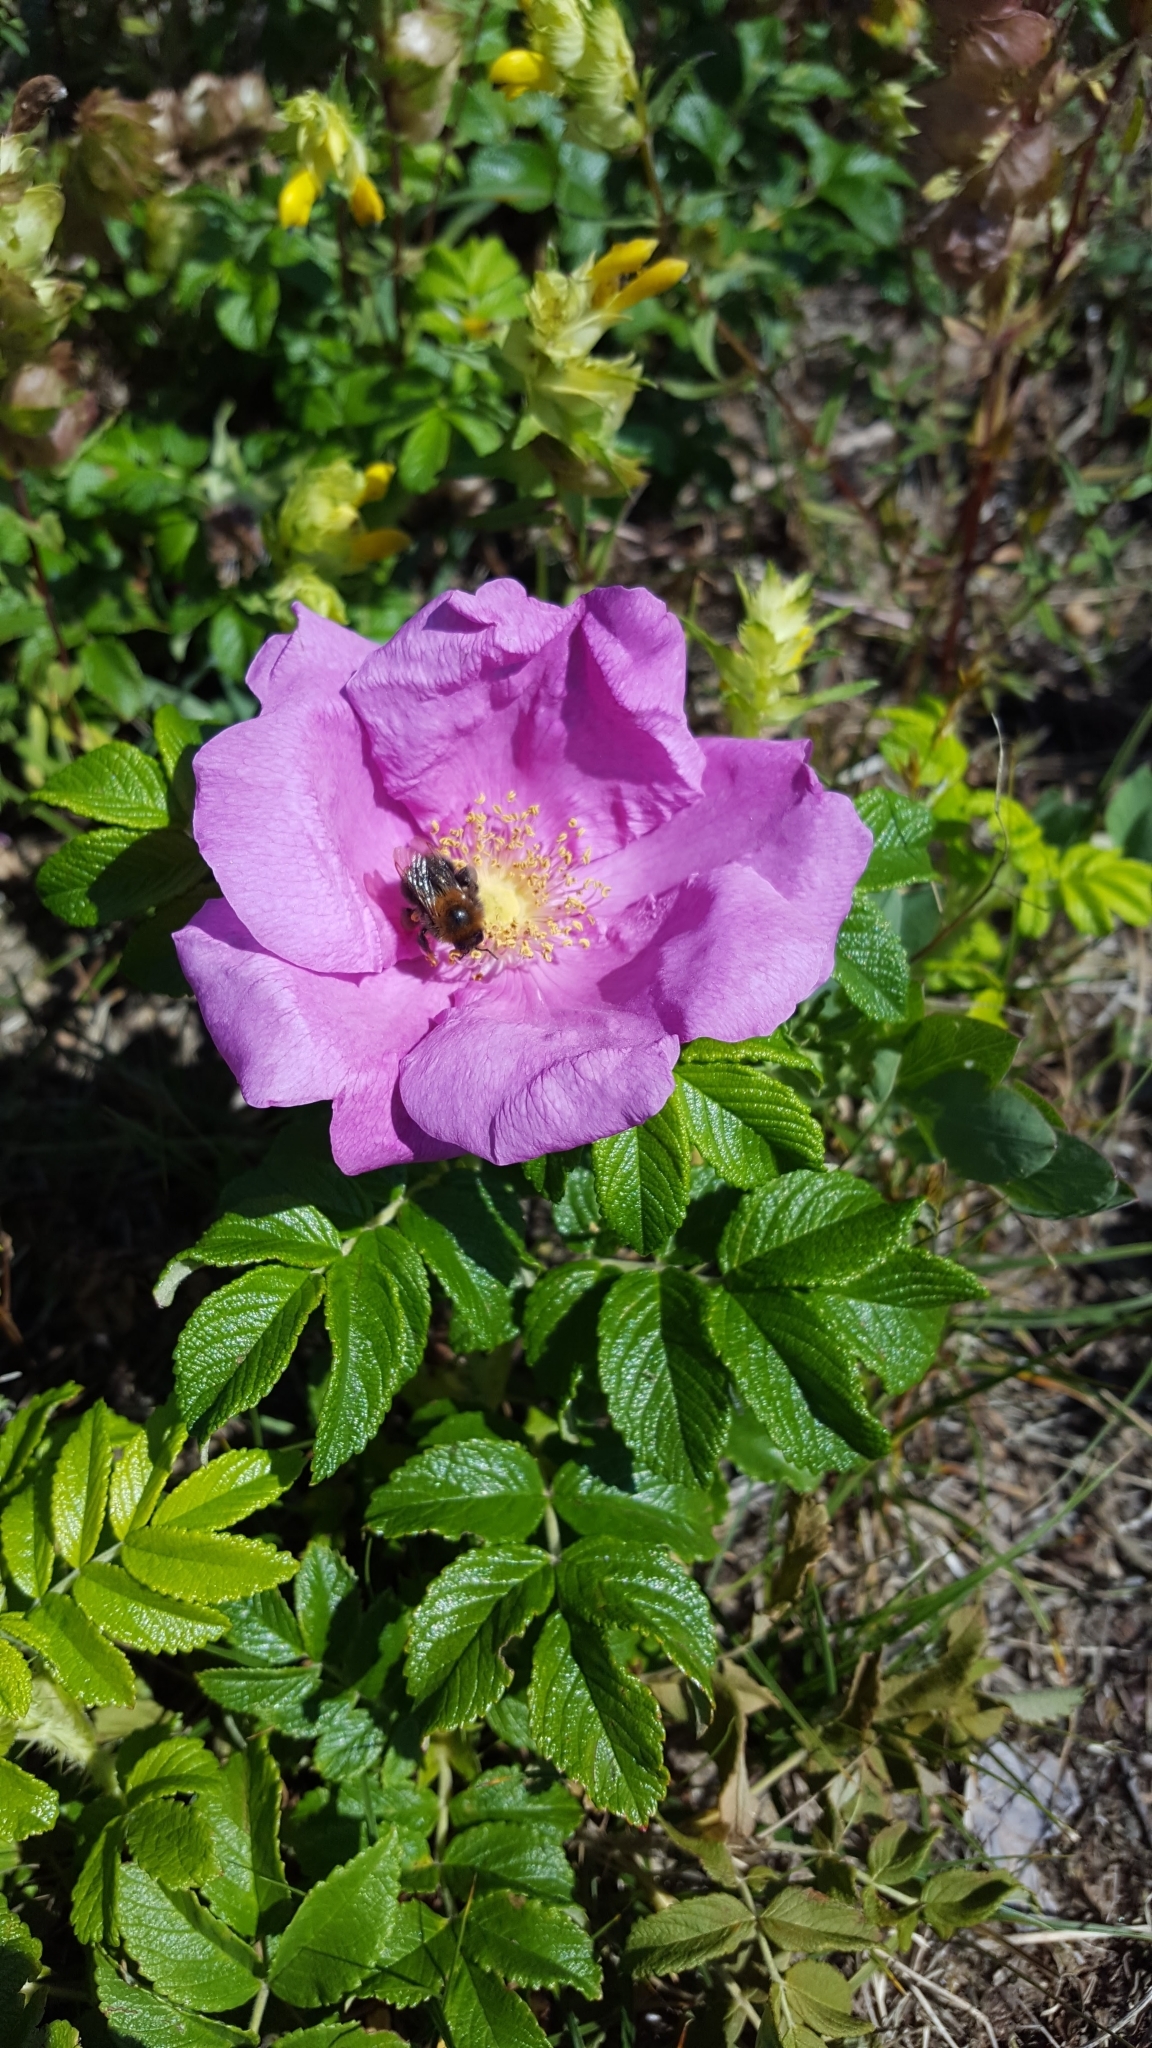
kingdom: Plantae
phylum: Tracheophyta
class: Magnoliopsida
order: Rosales
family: Rosaceae
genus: Rosa
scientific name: Rosa rugosa
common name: Japanese rose
